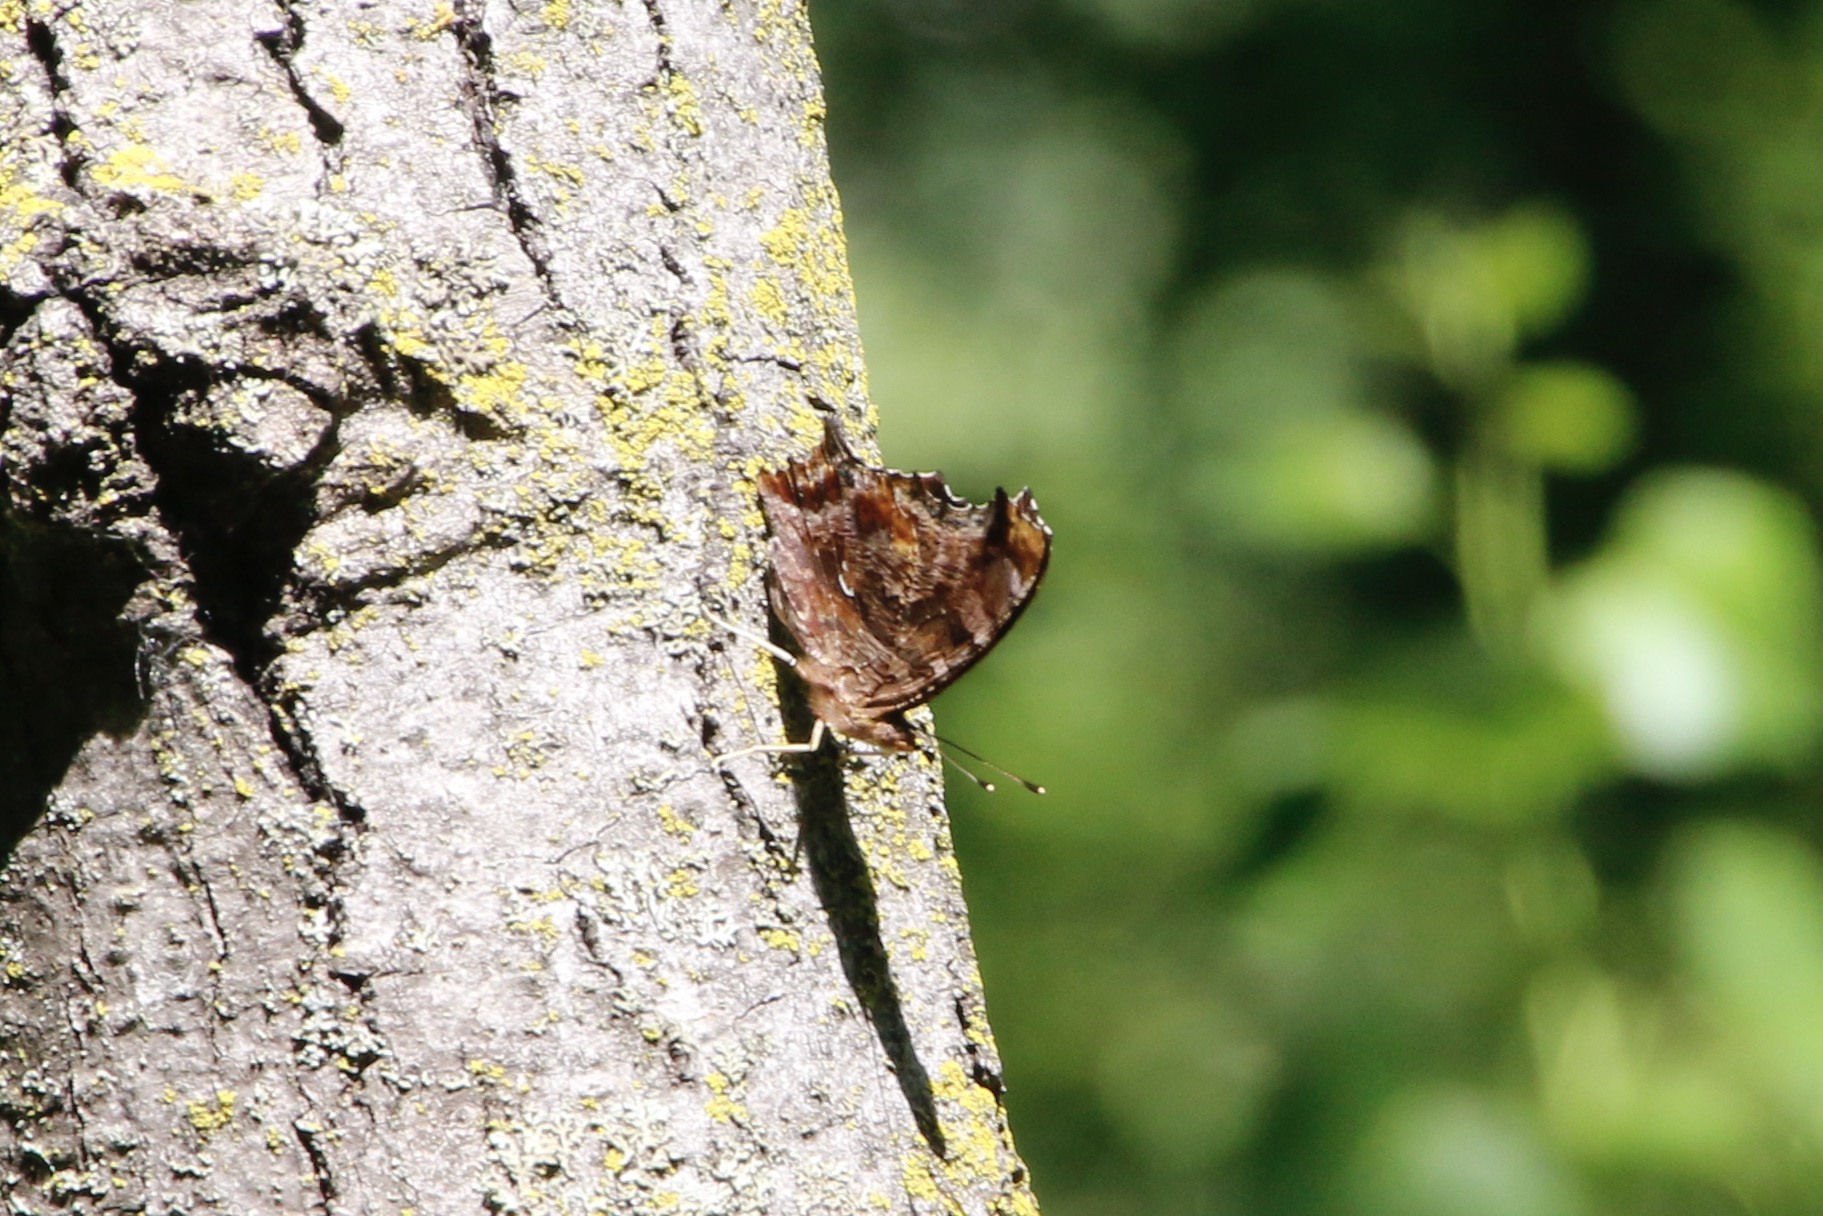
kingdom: Animalia
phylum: Arthropoda
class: Insecta
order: Lepidoptera
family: Nymphalidae
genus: Polygonia
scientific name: Polygonia interrogationis
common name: Question mark
